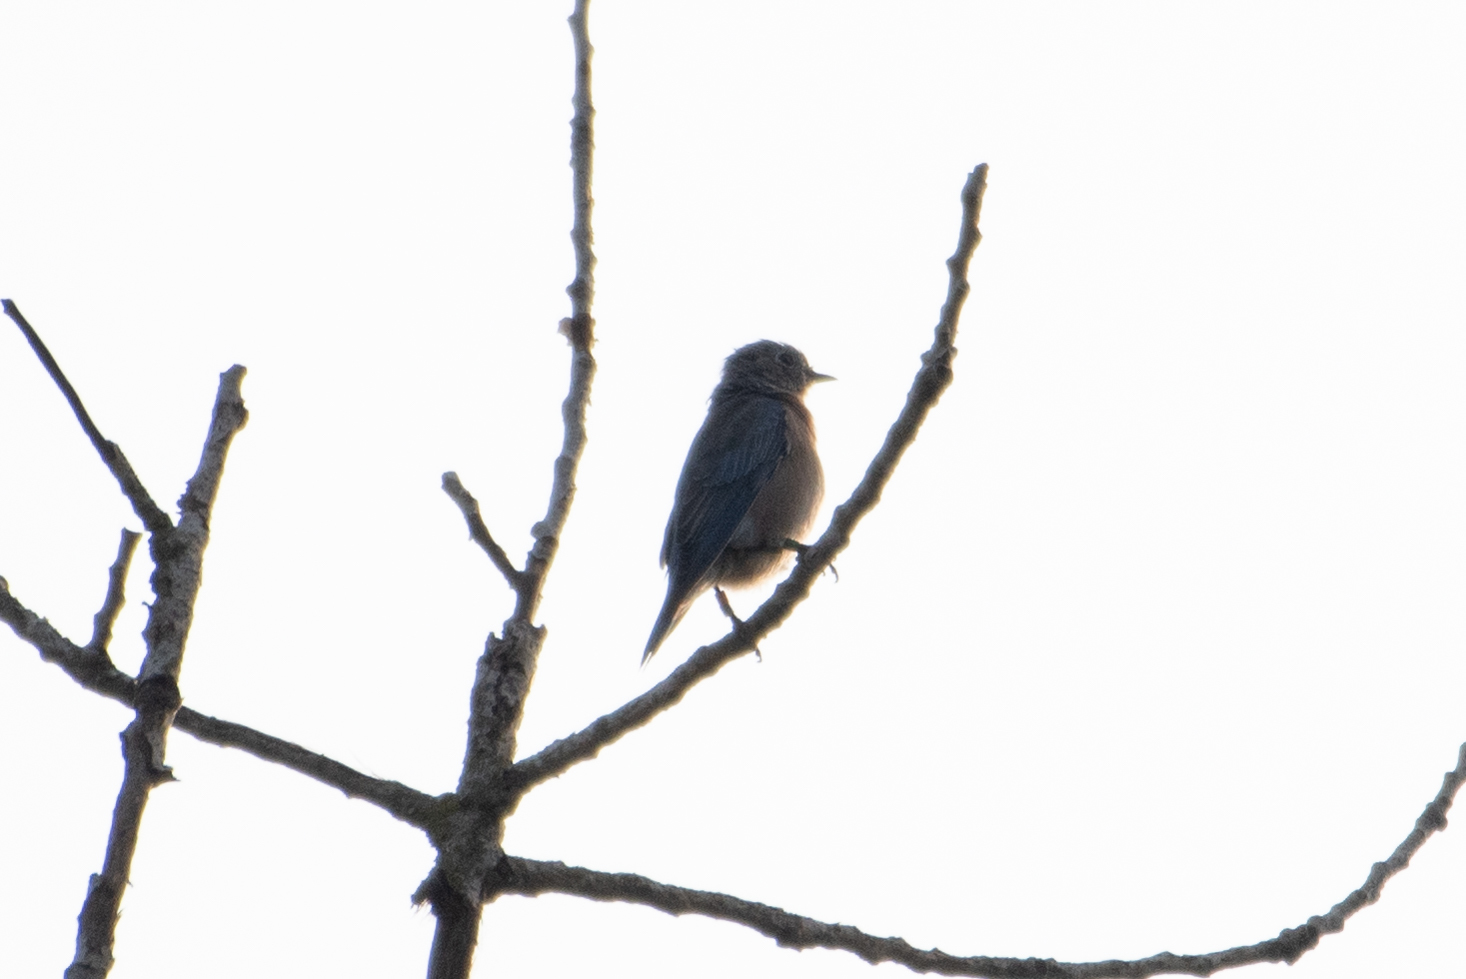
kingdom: Animalia
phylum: Chordata
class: Aves
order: Passeriformes
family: Turdidae
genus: Sialia
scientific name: Sialia mexicana
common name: Western bluebird
